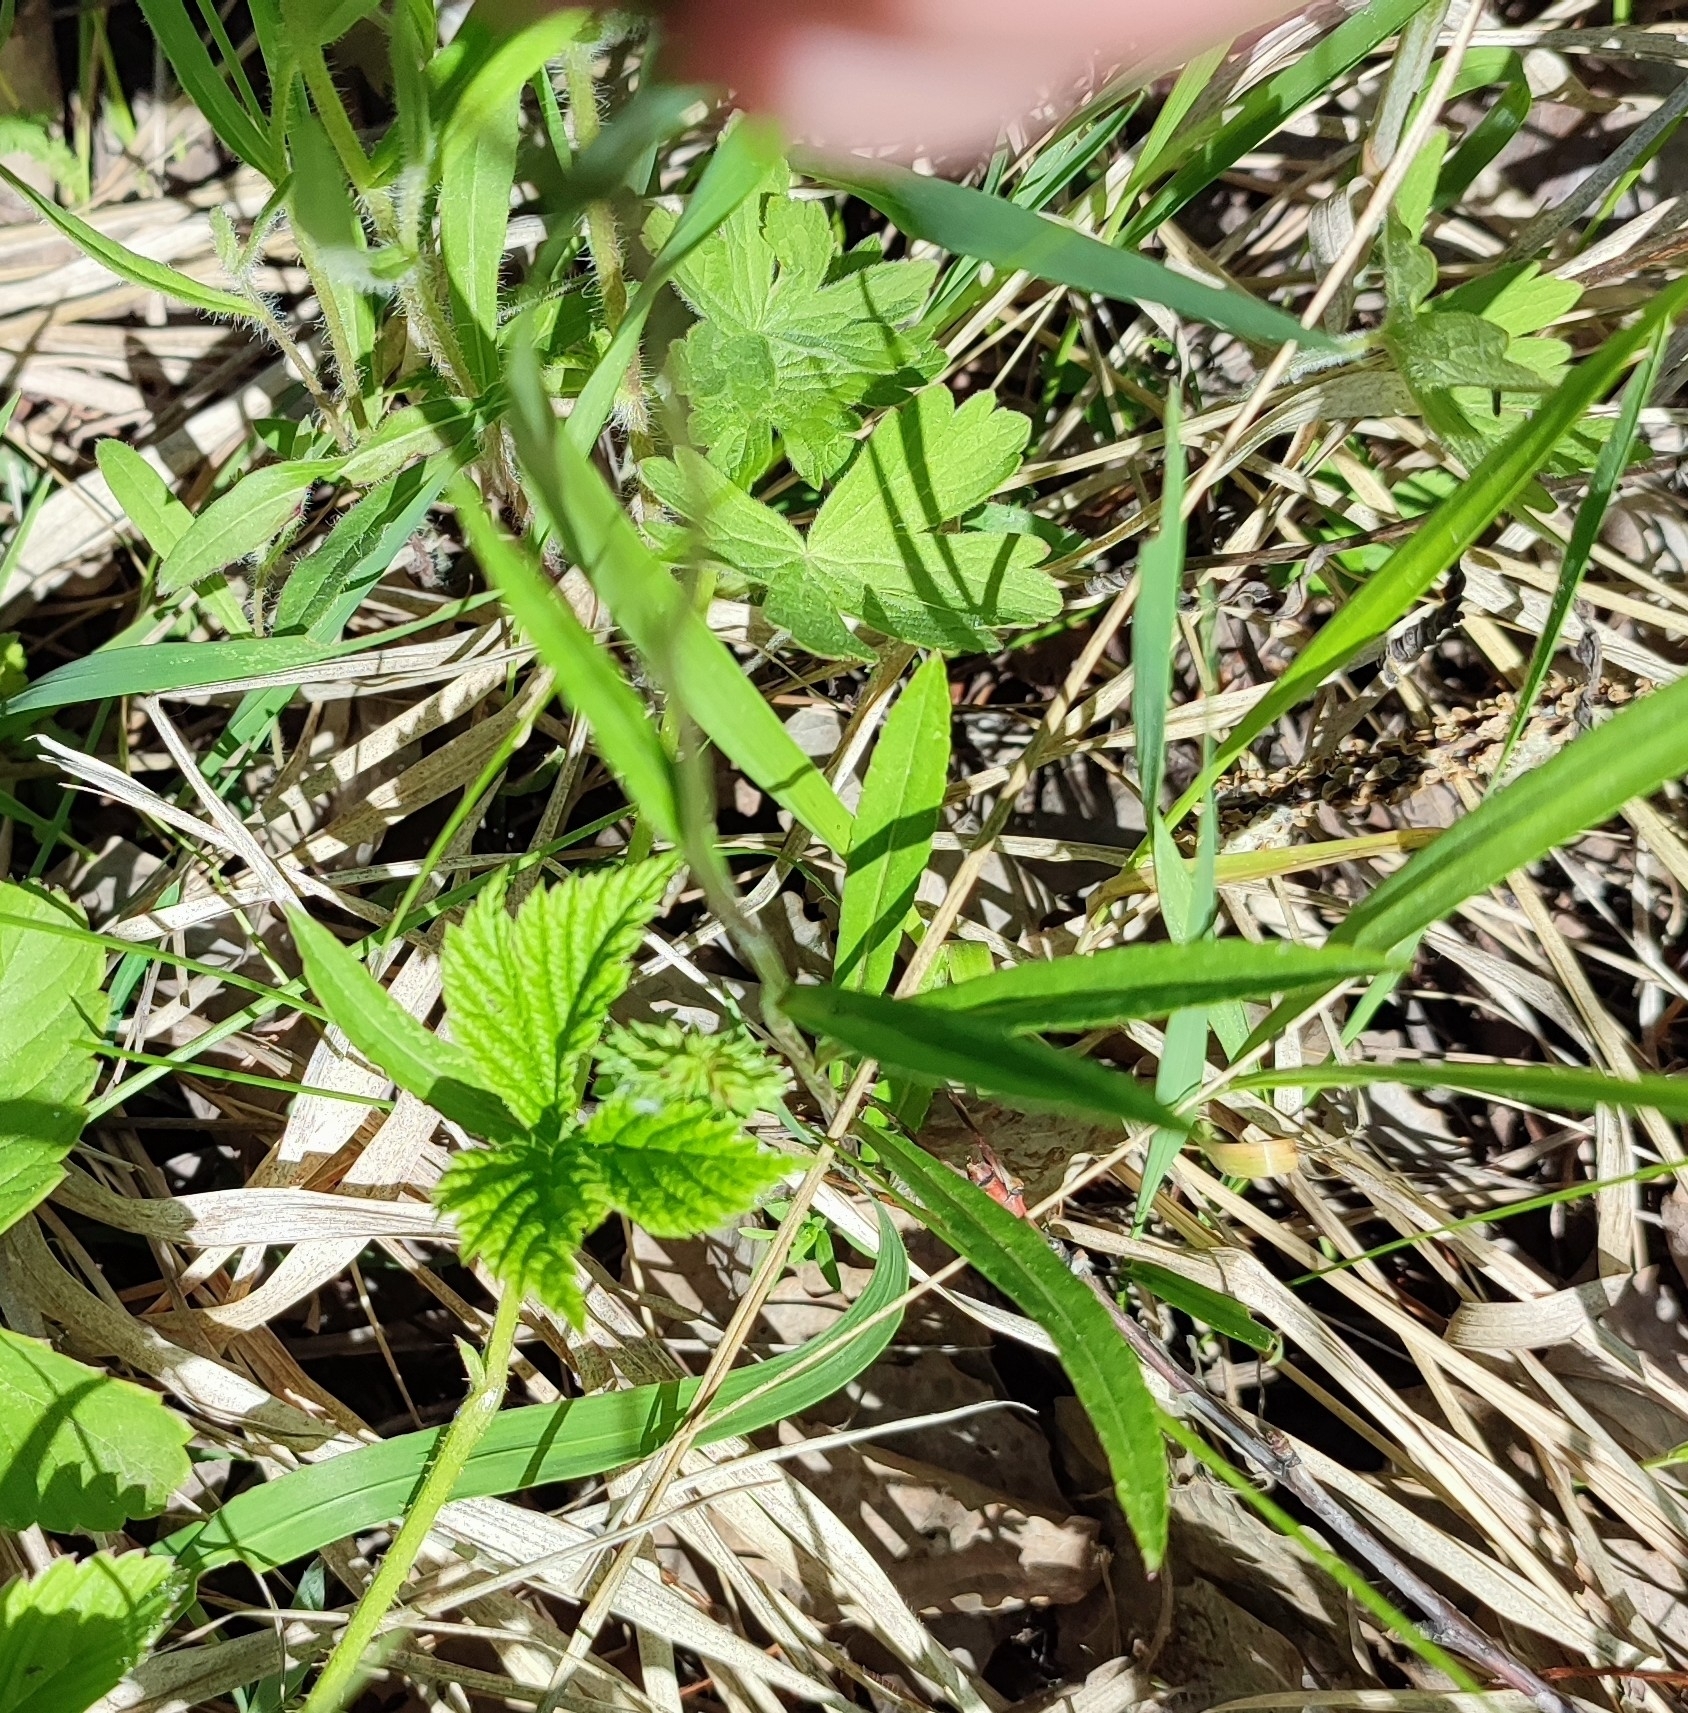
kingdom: Plantae
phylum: Tracheophyta
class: Magnoliopsida
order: Asterales
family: Campanulaceae
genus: Campanula
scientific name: Campanula stevenii
